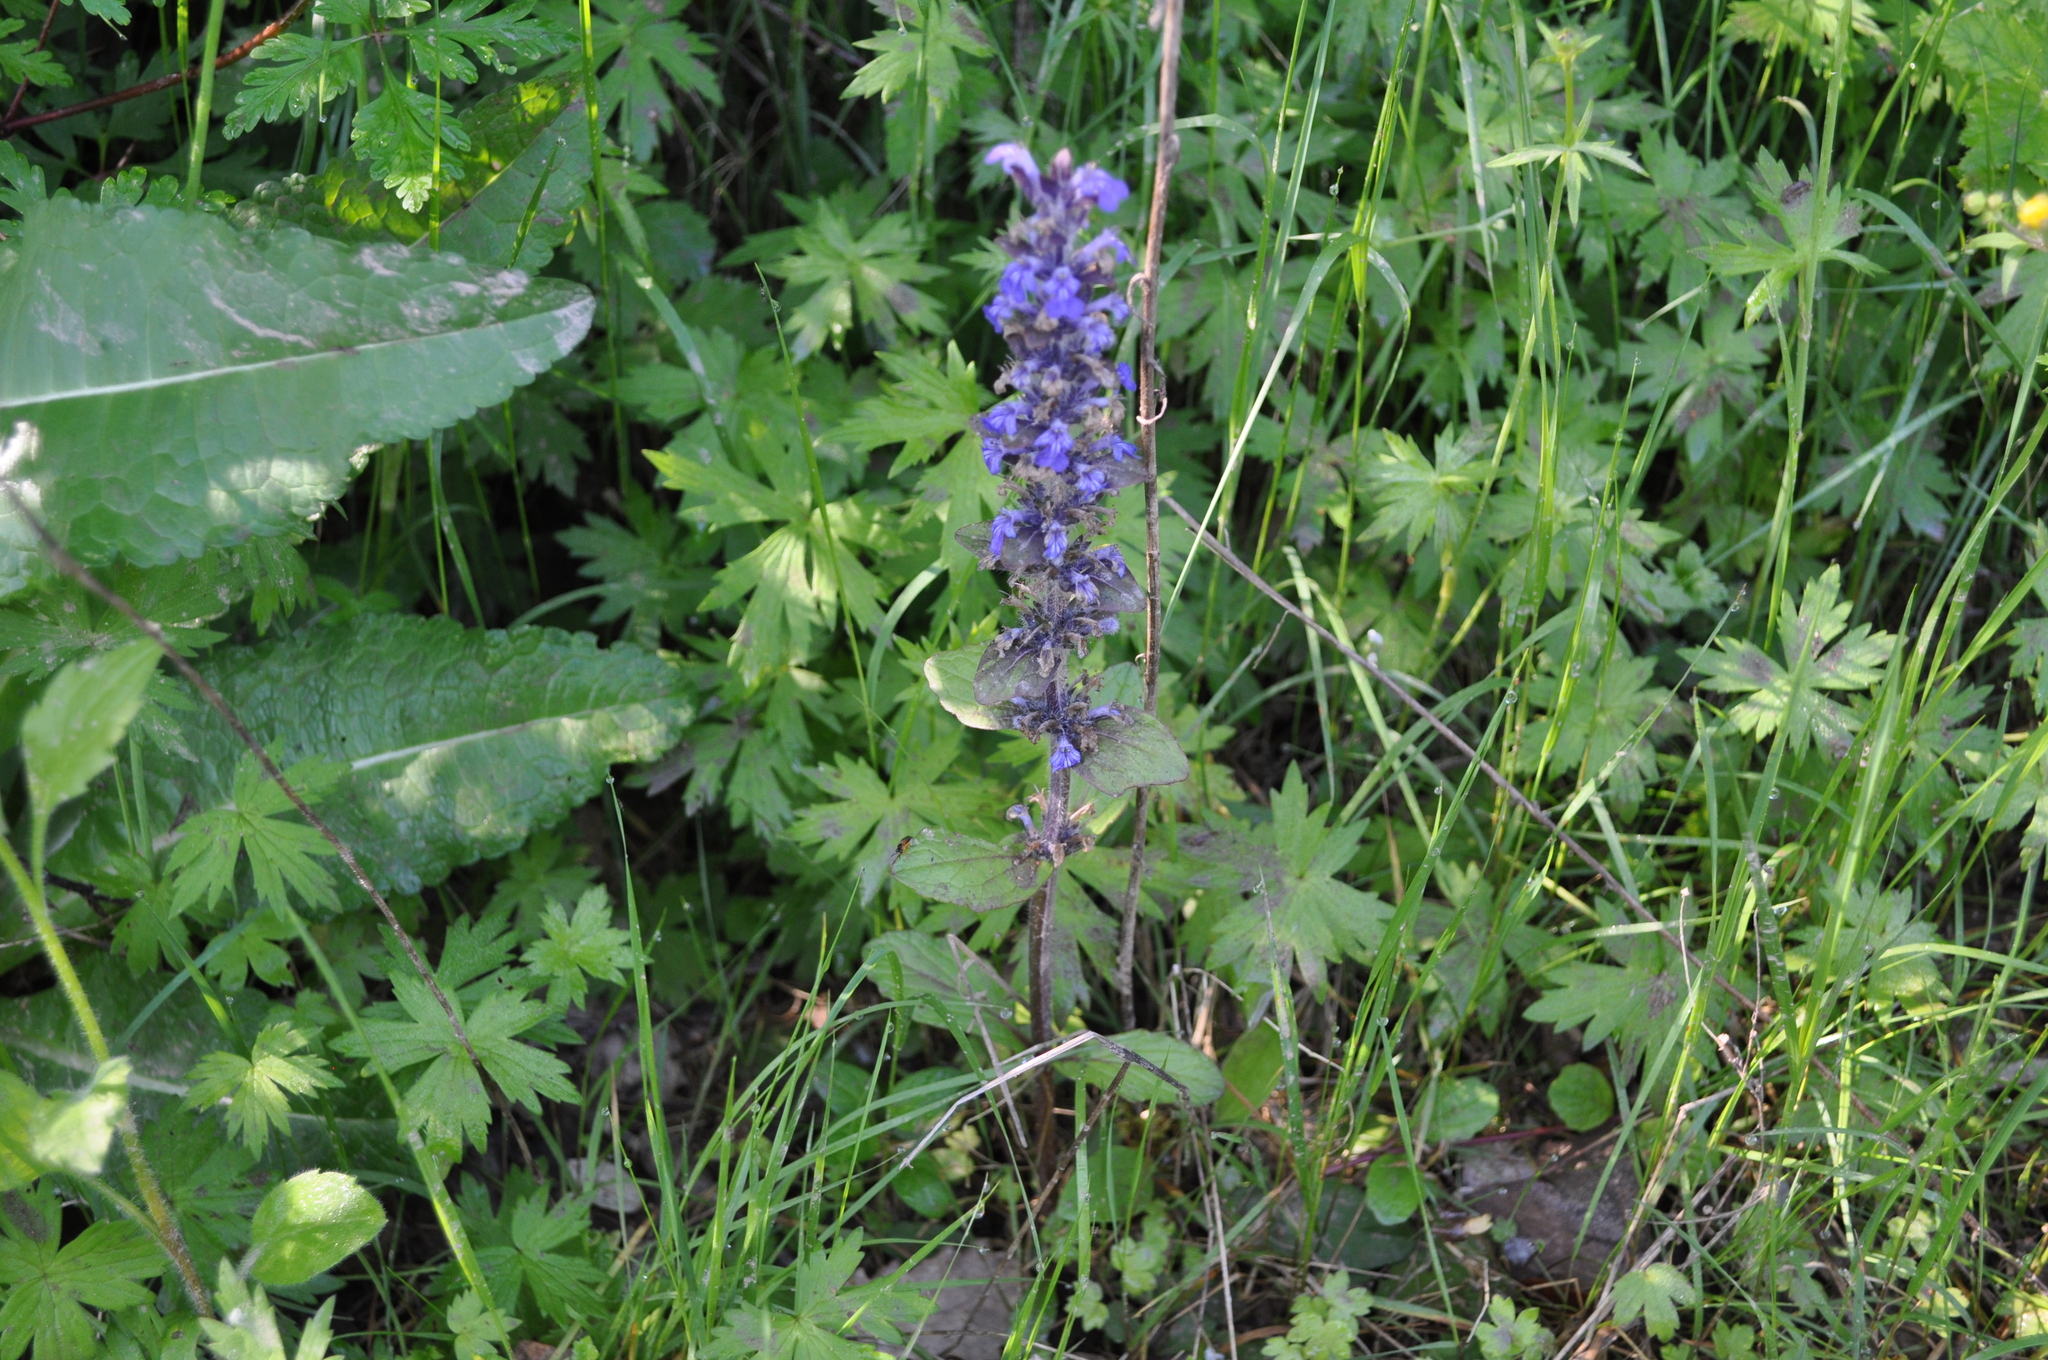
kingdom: Plantae
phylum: Tracheophyta
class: Magnoliopsida
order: Lamiales
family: Lamiaceae
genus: Ajuga
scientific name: Ajuga reptans
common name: Bugle
